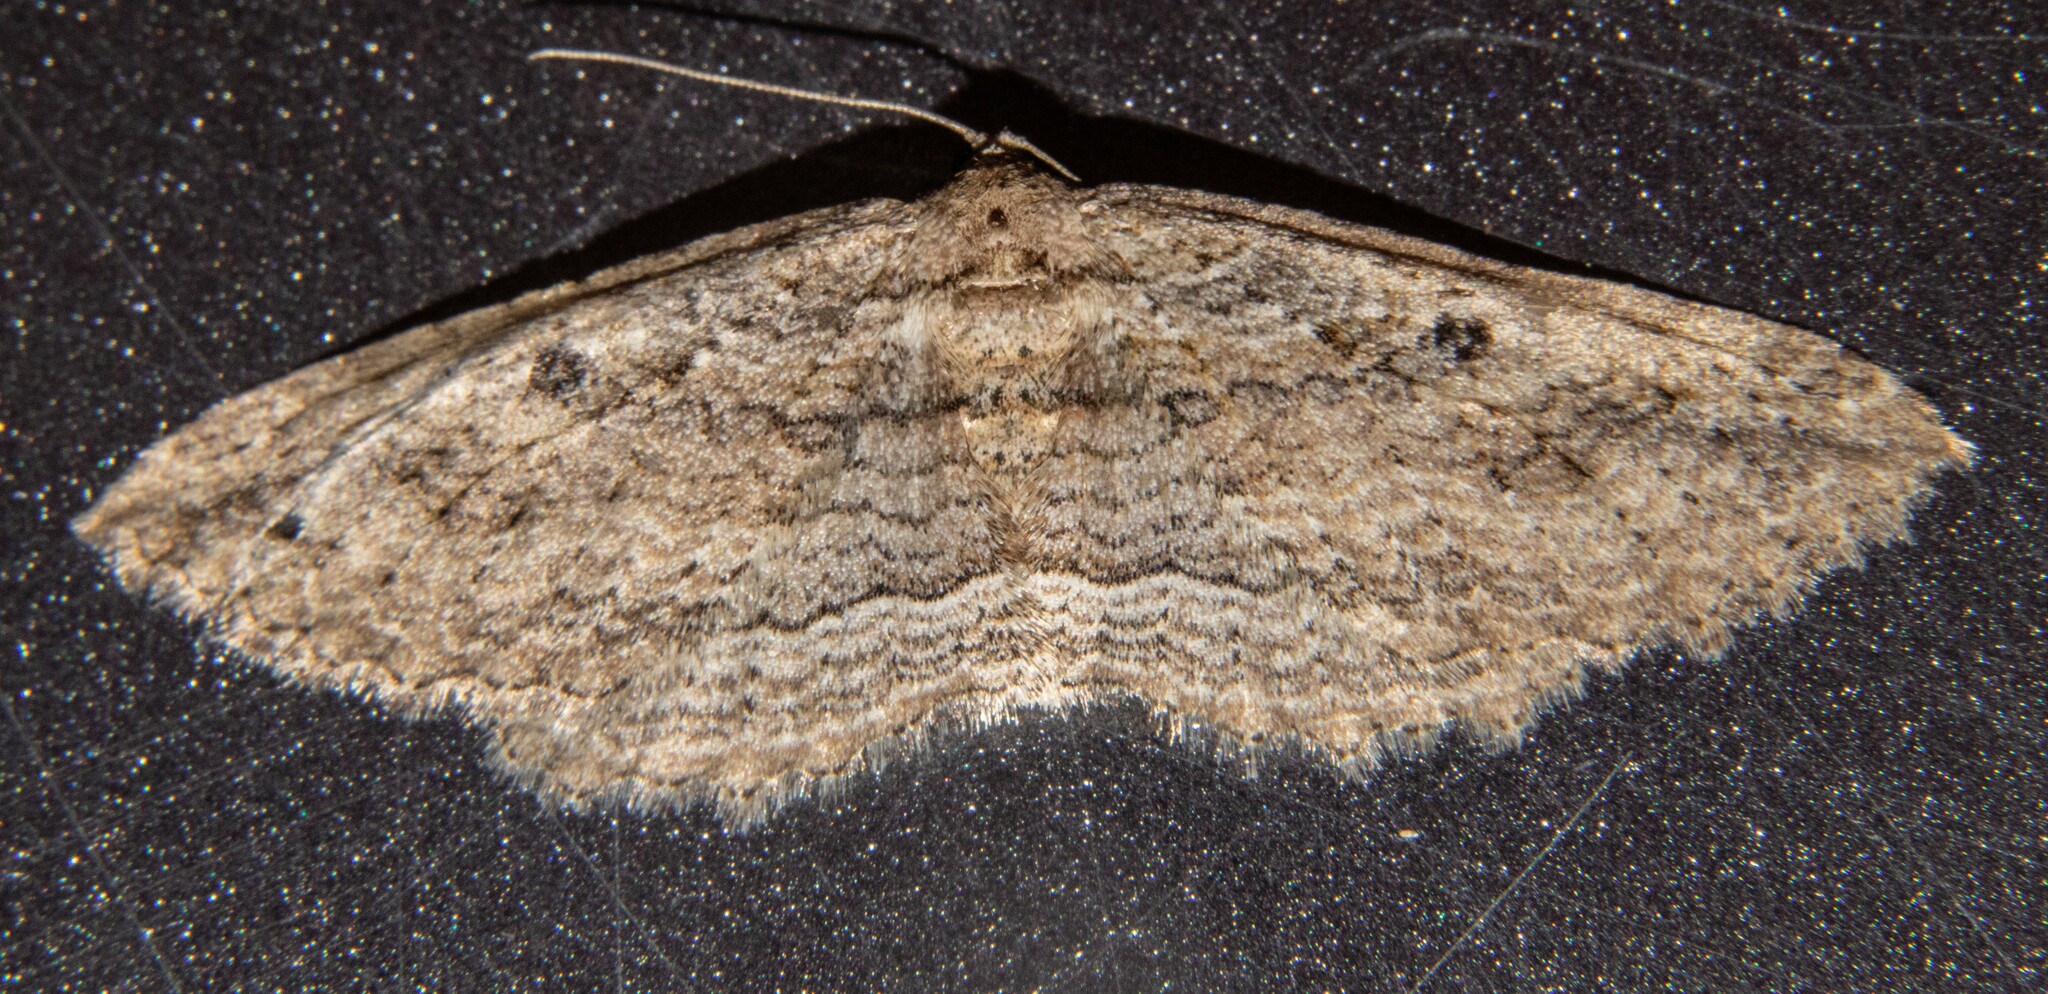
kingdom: Animalia
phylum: Arthropoda
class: Insecta
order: Lepidoptera
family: Geometridae
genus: Austrocidaria
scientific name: Austrocidaria gobiata
